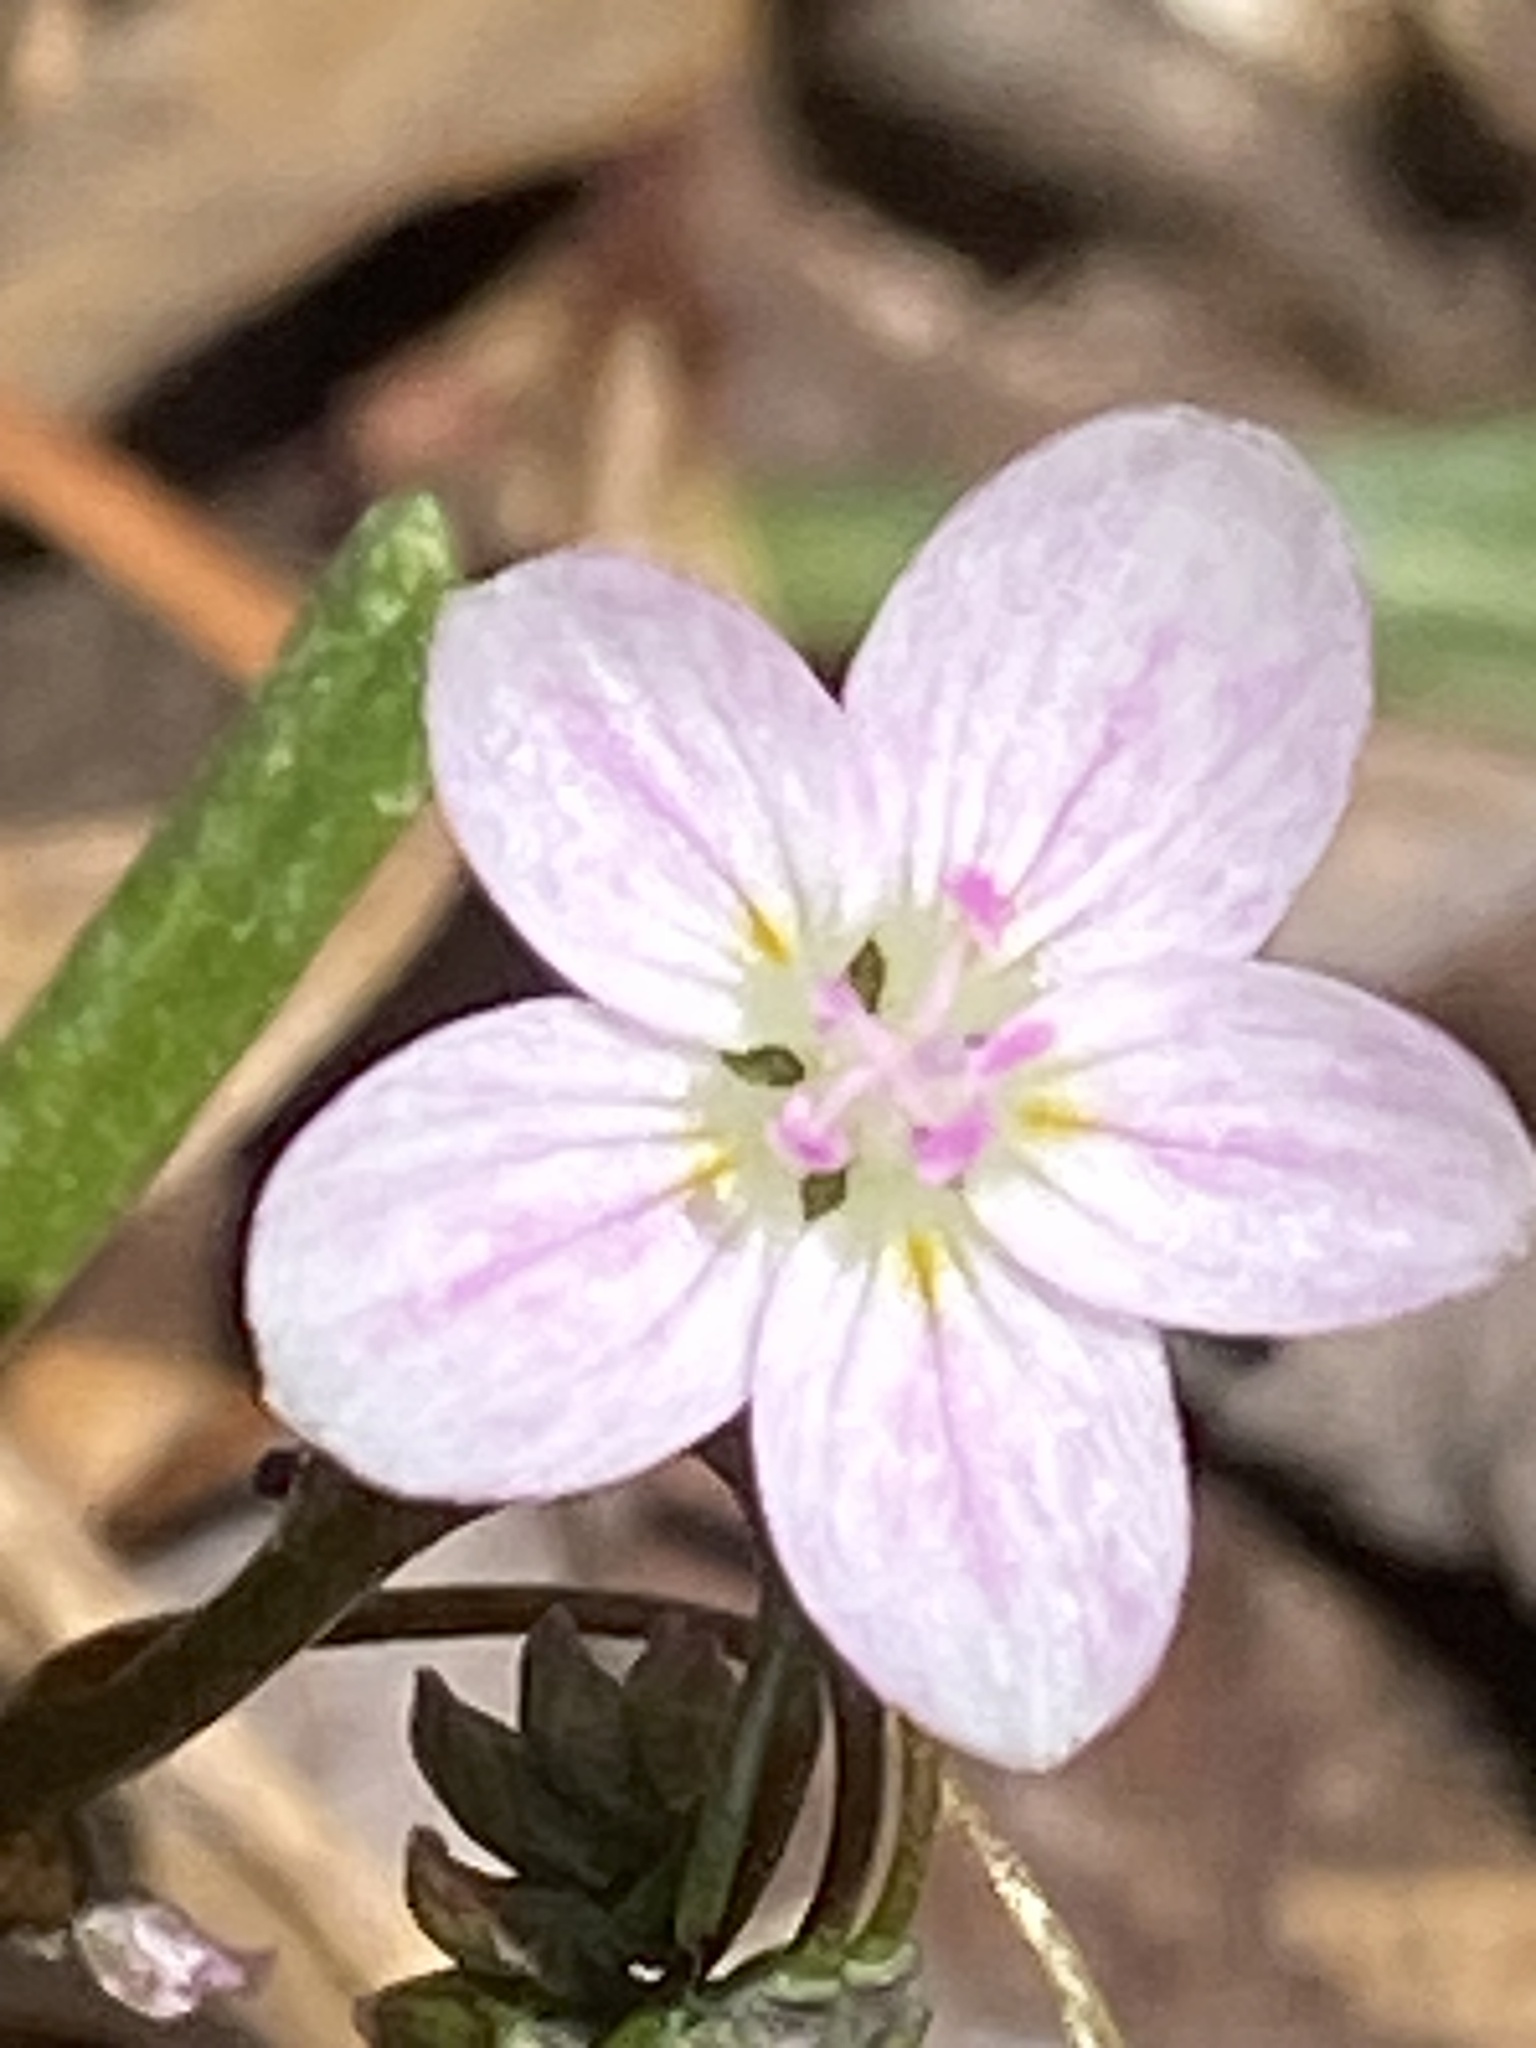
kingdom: Plantae
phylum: Tracheophyta
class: Magnoliopsida
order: Caryophyllales
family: Montiaceae
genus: Claytonia
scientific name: Claytonia virginica
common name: Virginia springbeauty
